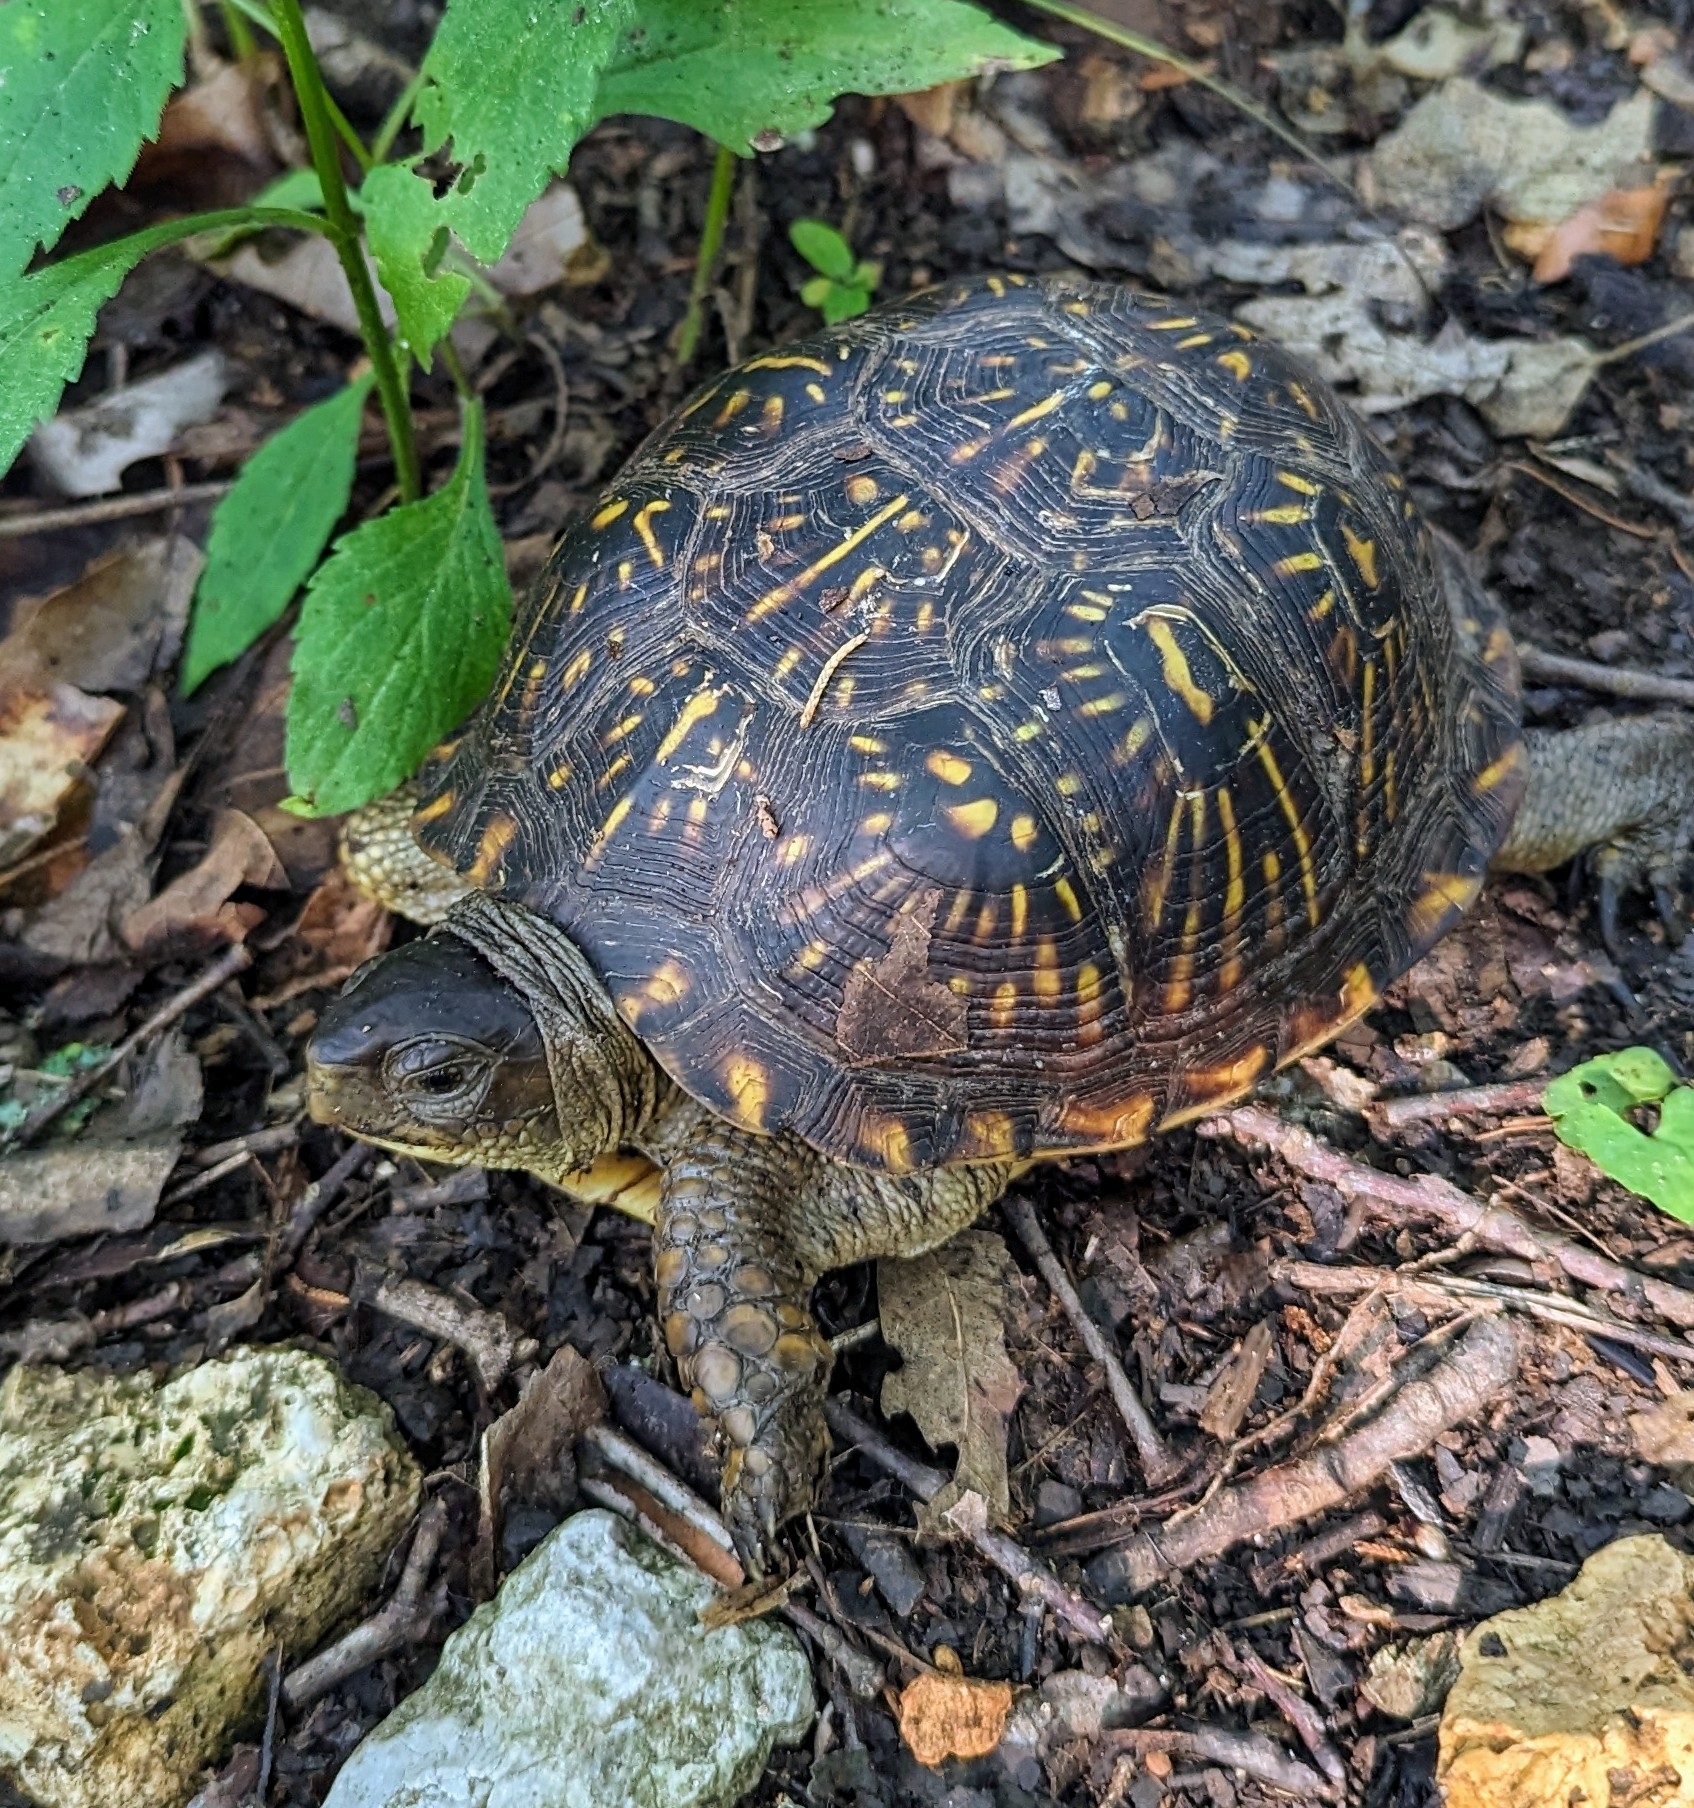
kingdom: Animalia
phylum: Chordata
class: Testudines
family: Emydidae
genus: Terrapene
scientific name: Terrapene carolina
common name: Common box turtle
